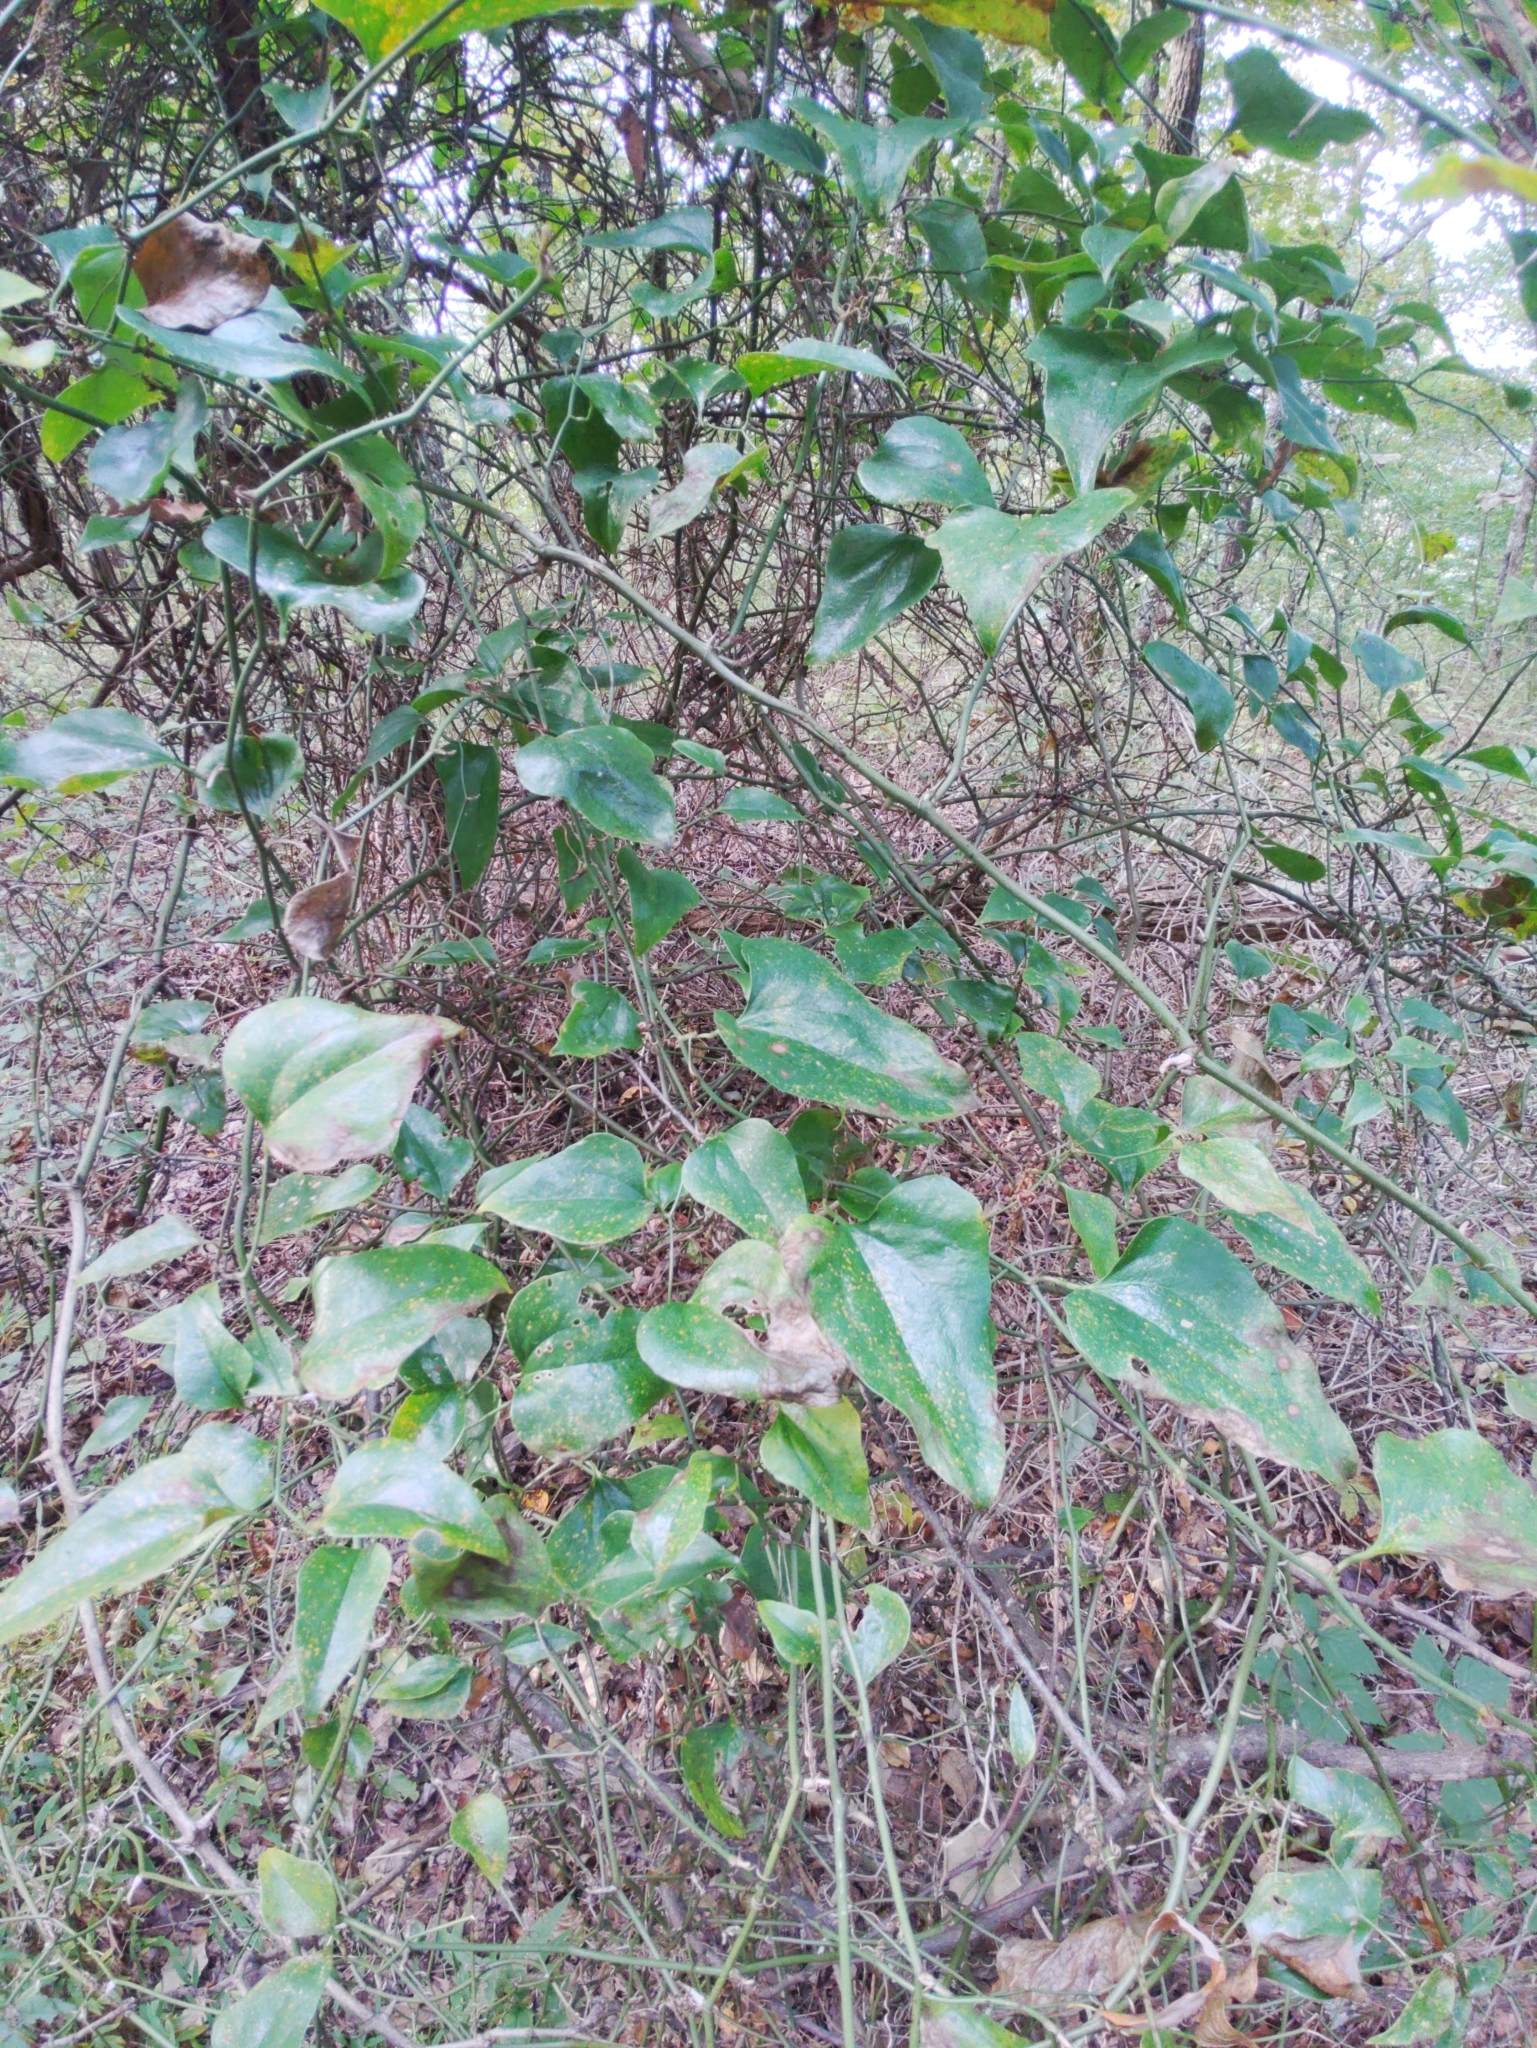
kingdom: Plantae
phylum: Tracheophyta
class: Liliopsida
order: Liliales
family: Smilacaceae
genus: Smilax
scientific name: Smilax bona-nox
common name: Catbrier
